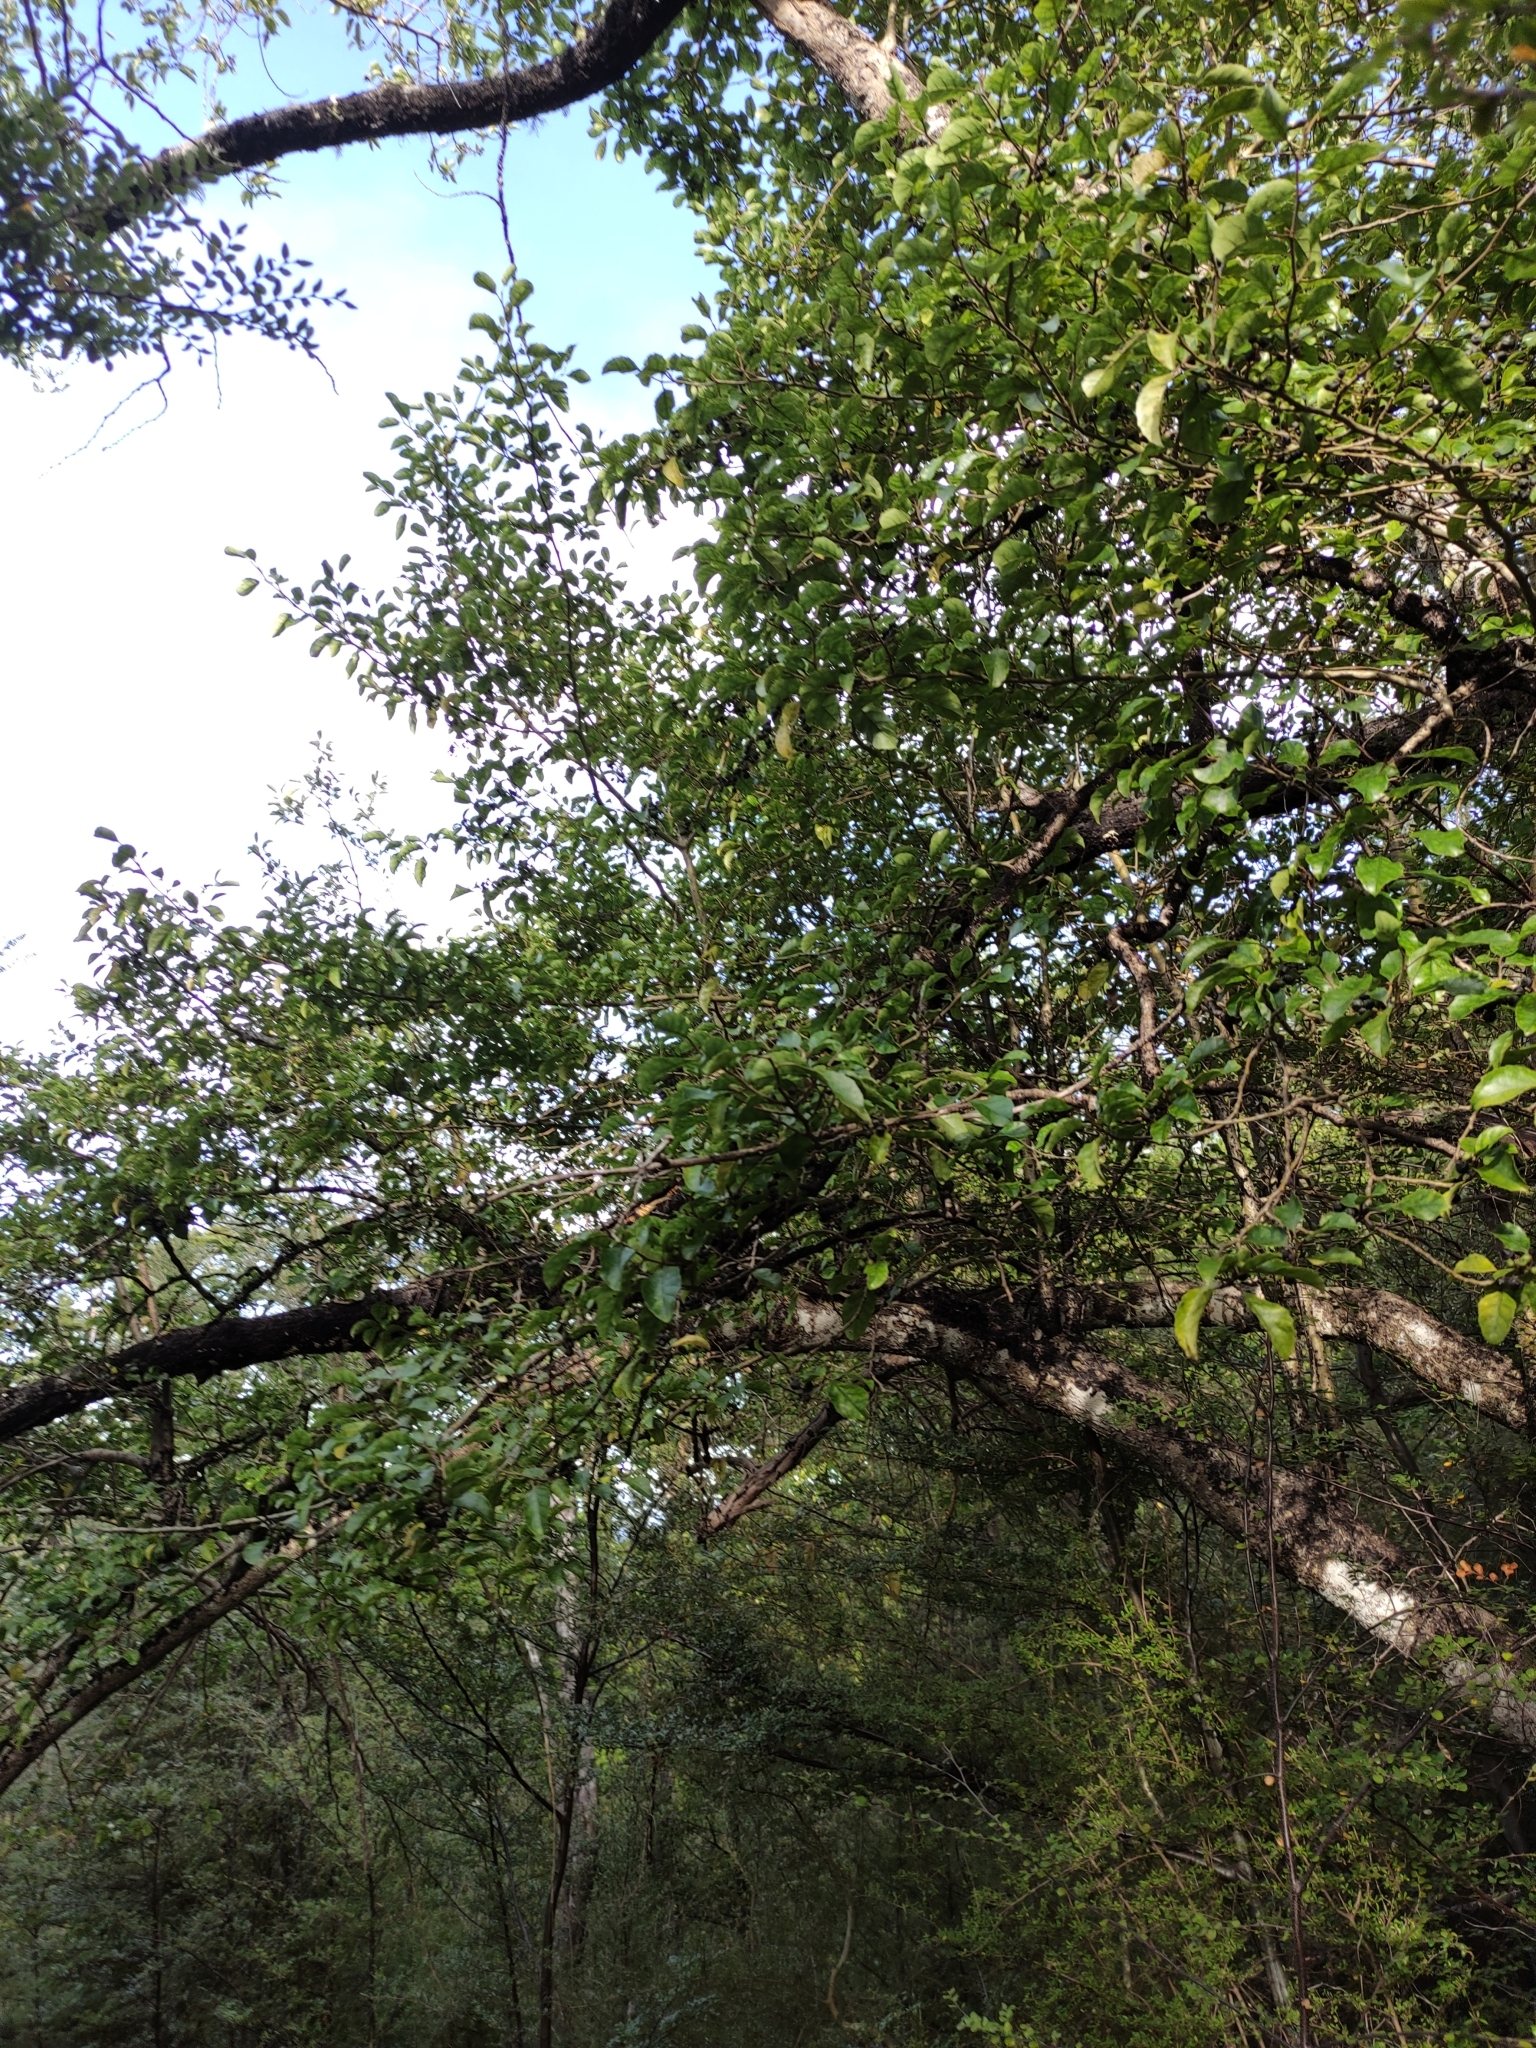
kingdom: Plantae
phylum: Tracheophyta
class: Magnoliopsida
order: Asterales
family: Rousseaceae
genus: Carpodetus
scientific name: Carpodetus serratus
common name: White mapau
